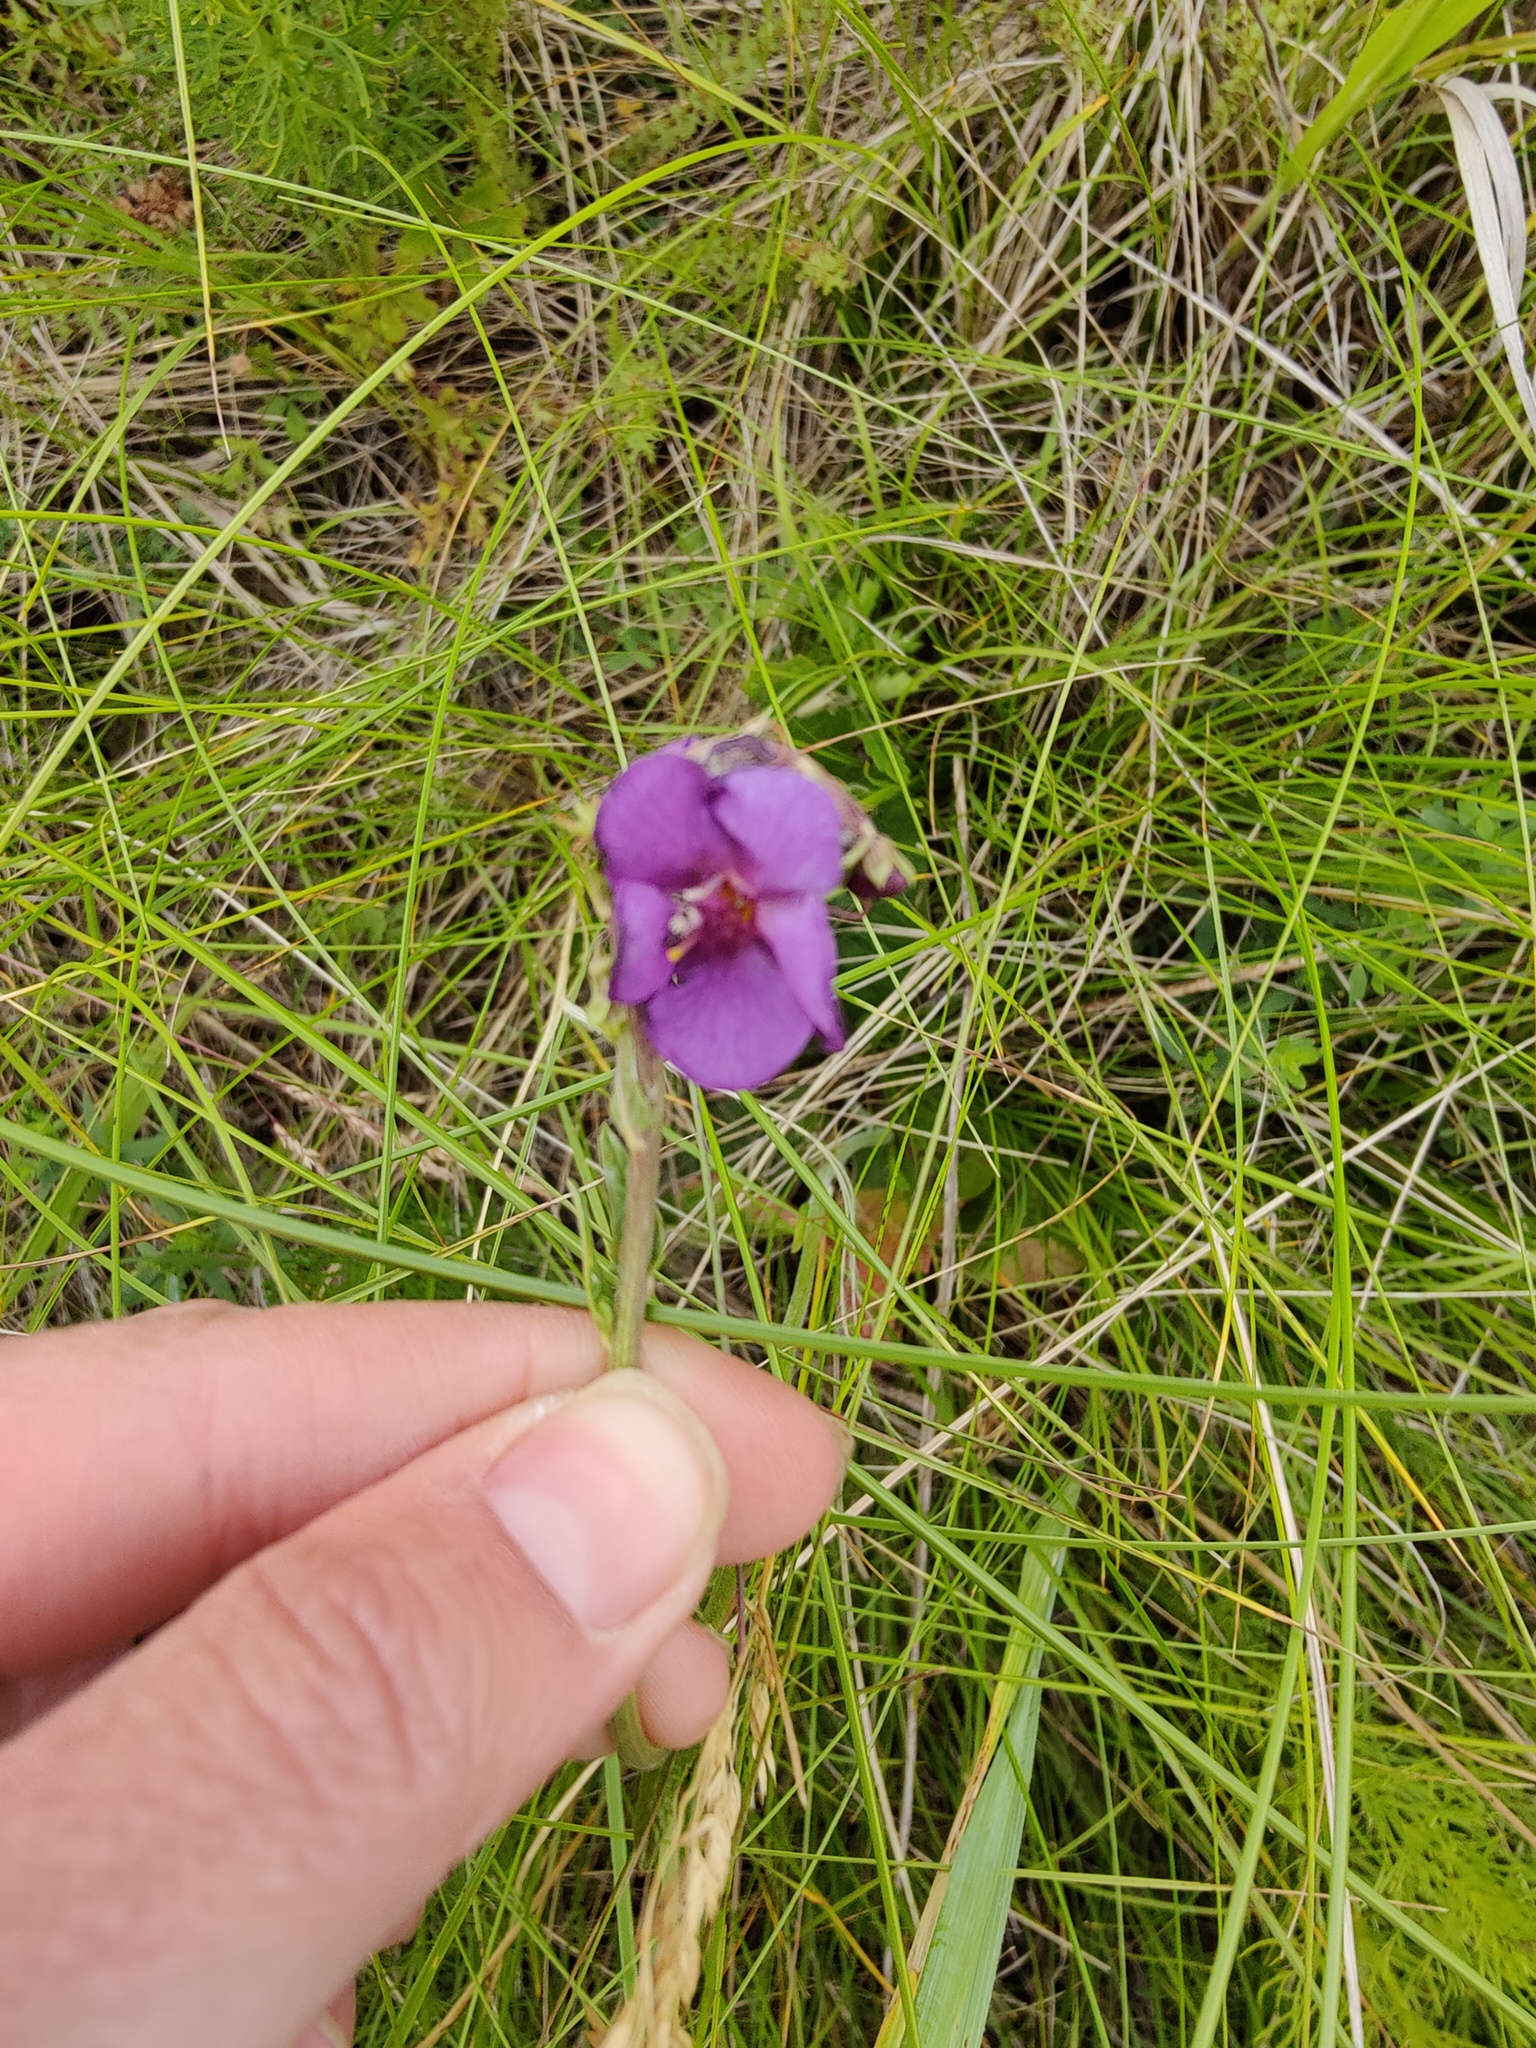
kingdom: Plantae
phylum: Tracheophyta
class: Magnoliopsida
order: Lamiales
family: Scrophulariaceae
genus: Verbascum
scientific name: Verbascum phoeniceum
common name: Purple mullein
